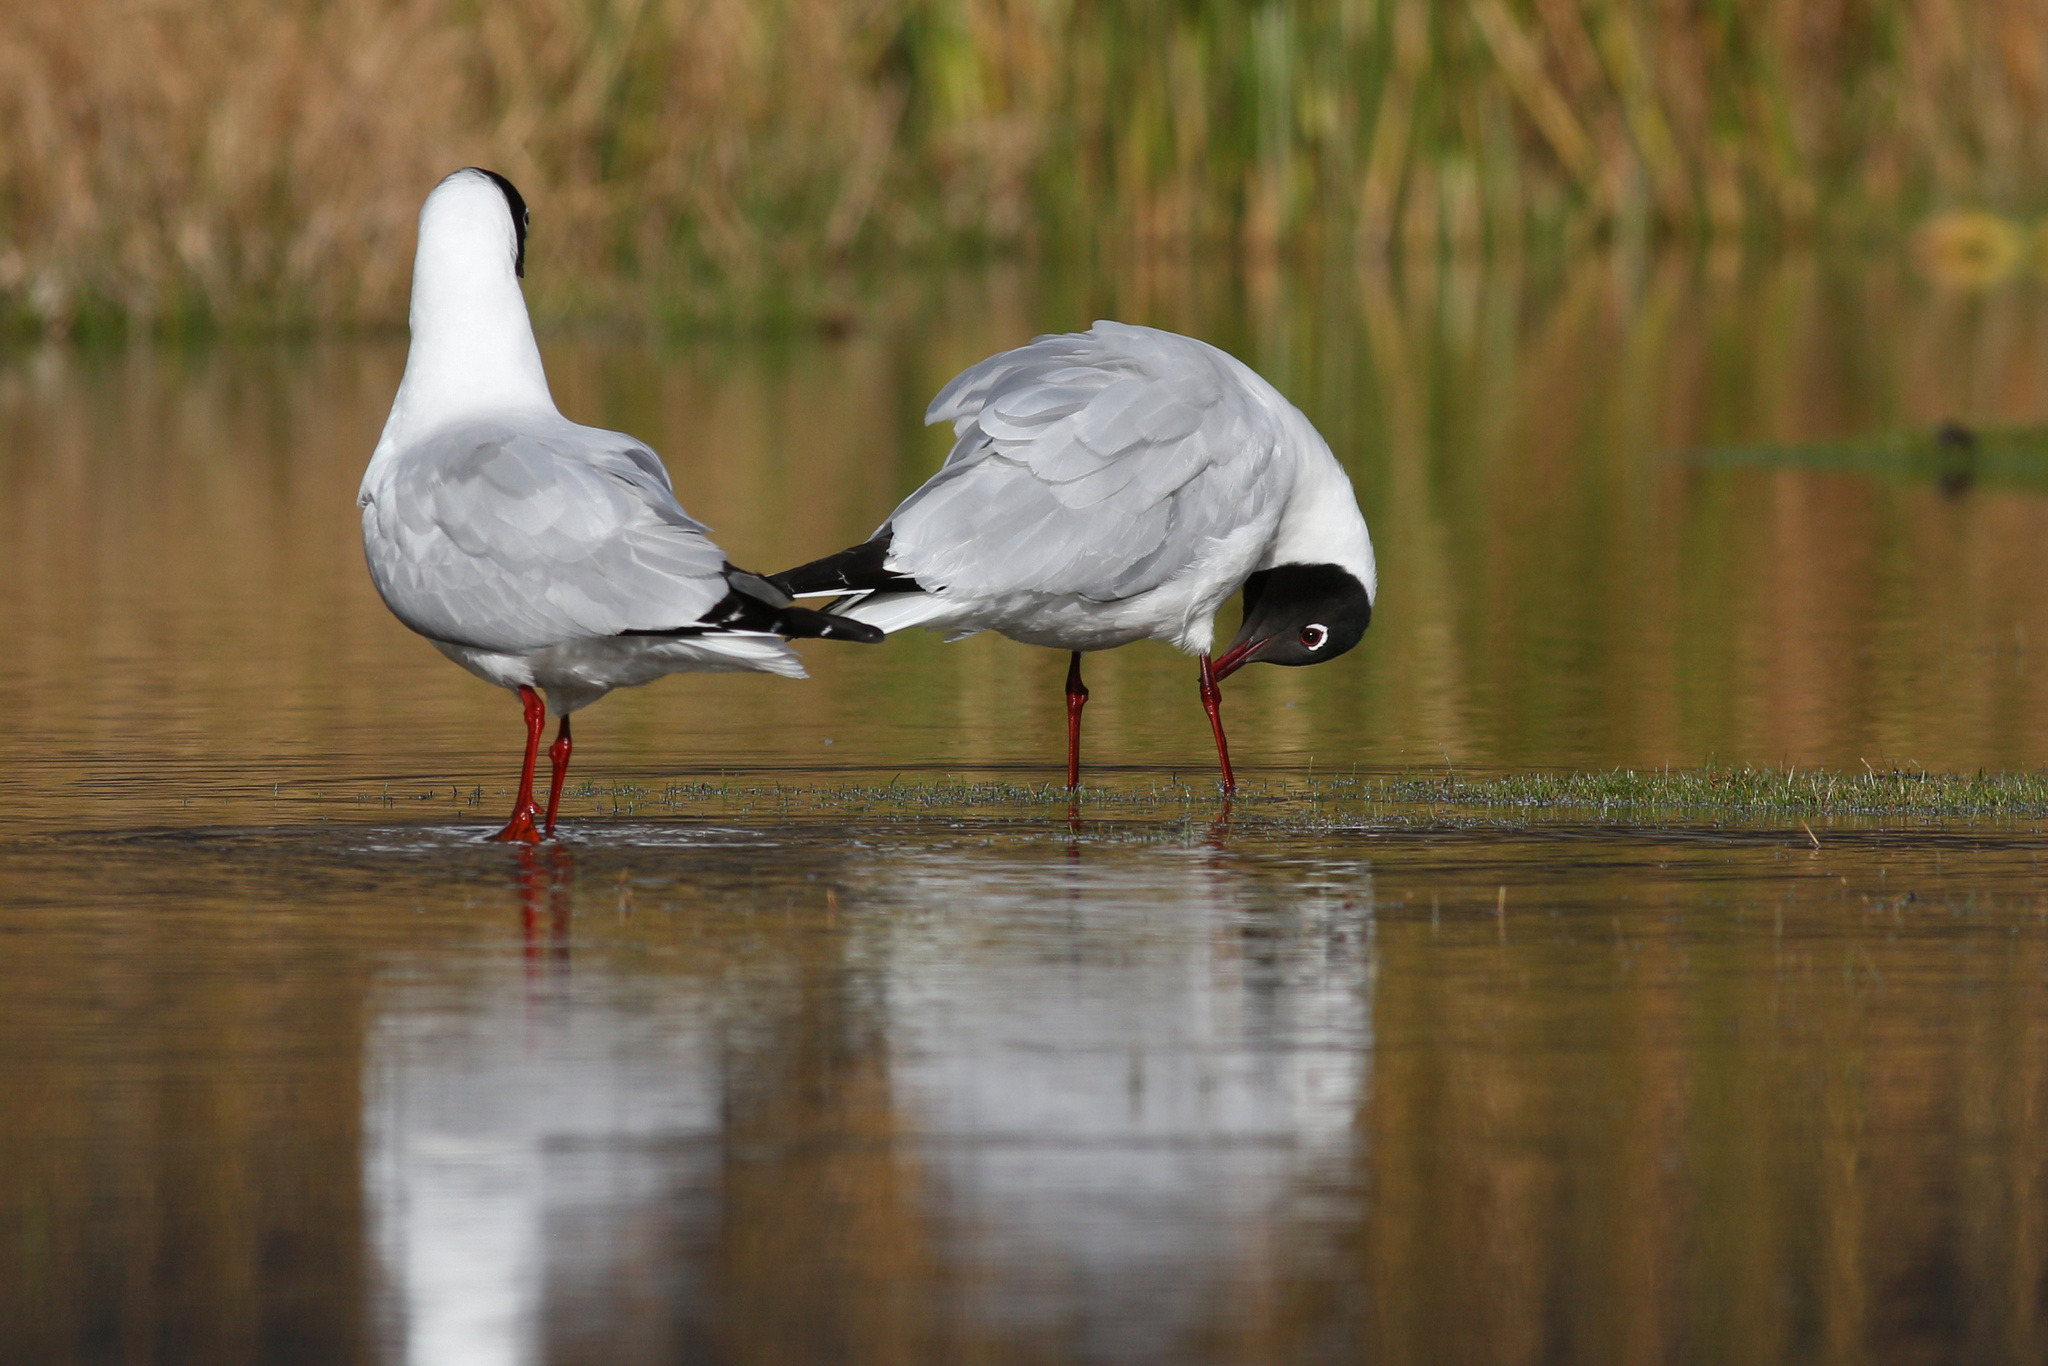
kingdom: Animalia
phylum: Chordata
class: Aves
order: Charadriiformes
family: Laridae
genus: Chroicocephalus
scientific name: Chroicocephalus serranus
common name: Andean gull
